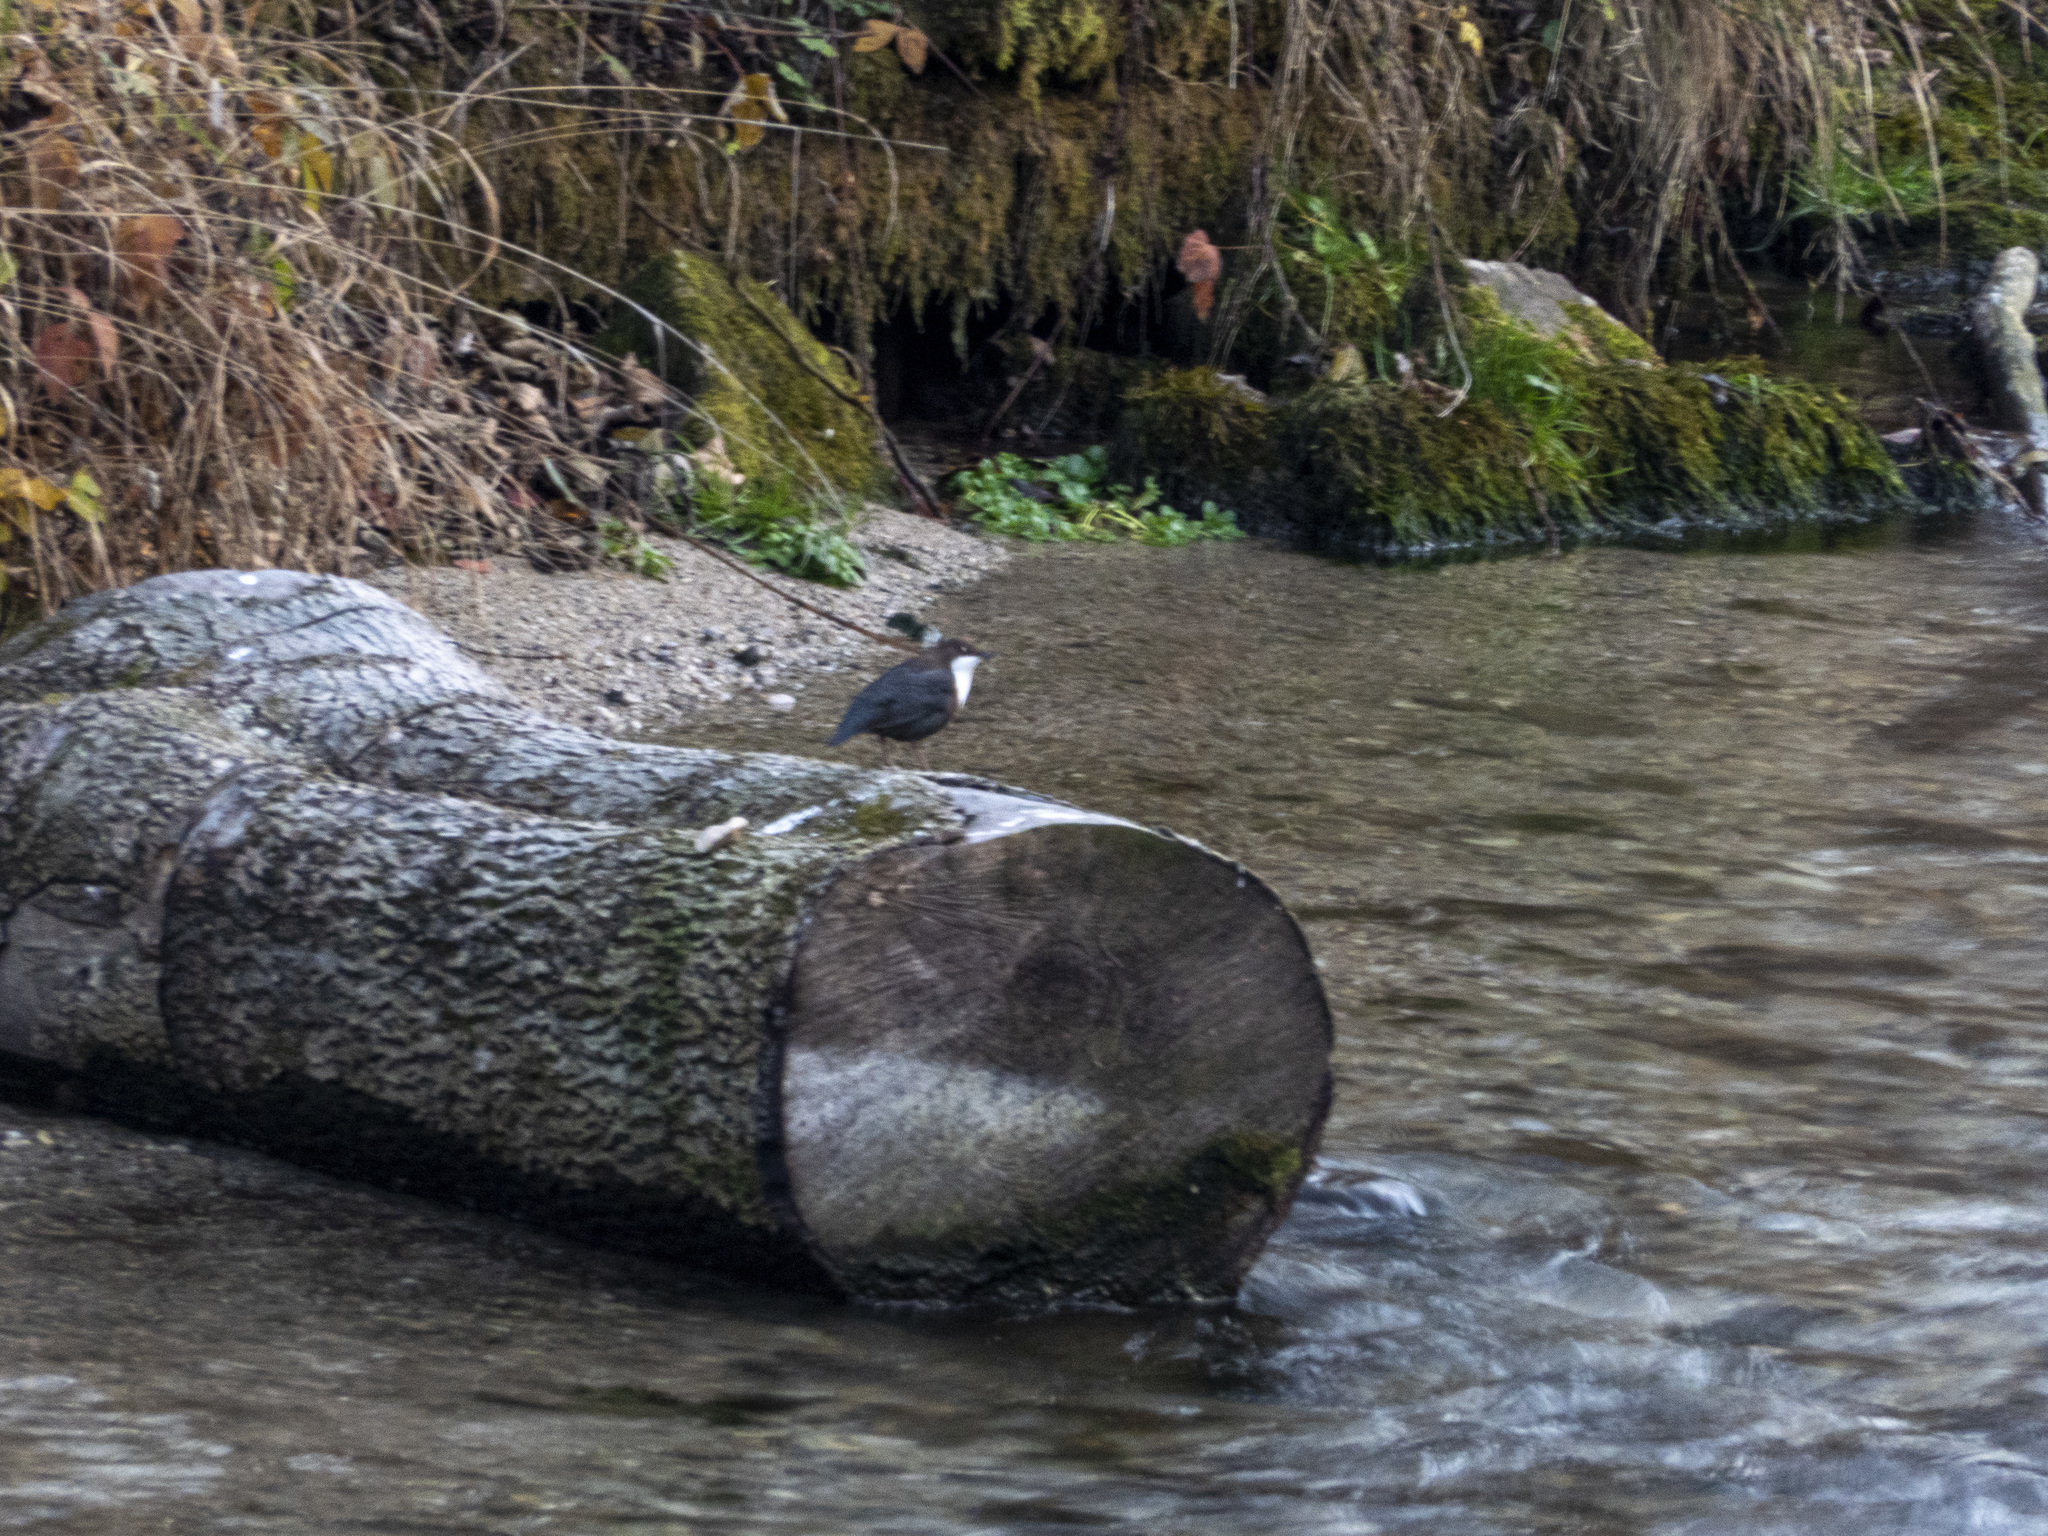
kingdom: Animalia
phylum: Chordata
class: Aves
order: Passeriformes
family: Cinclidae
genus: Cinclus
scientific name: Cinclus cinclus
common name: White-throated dipper
